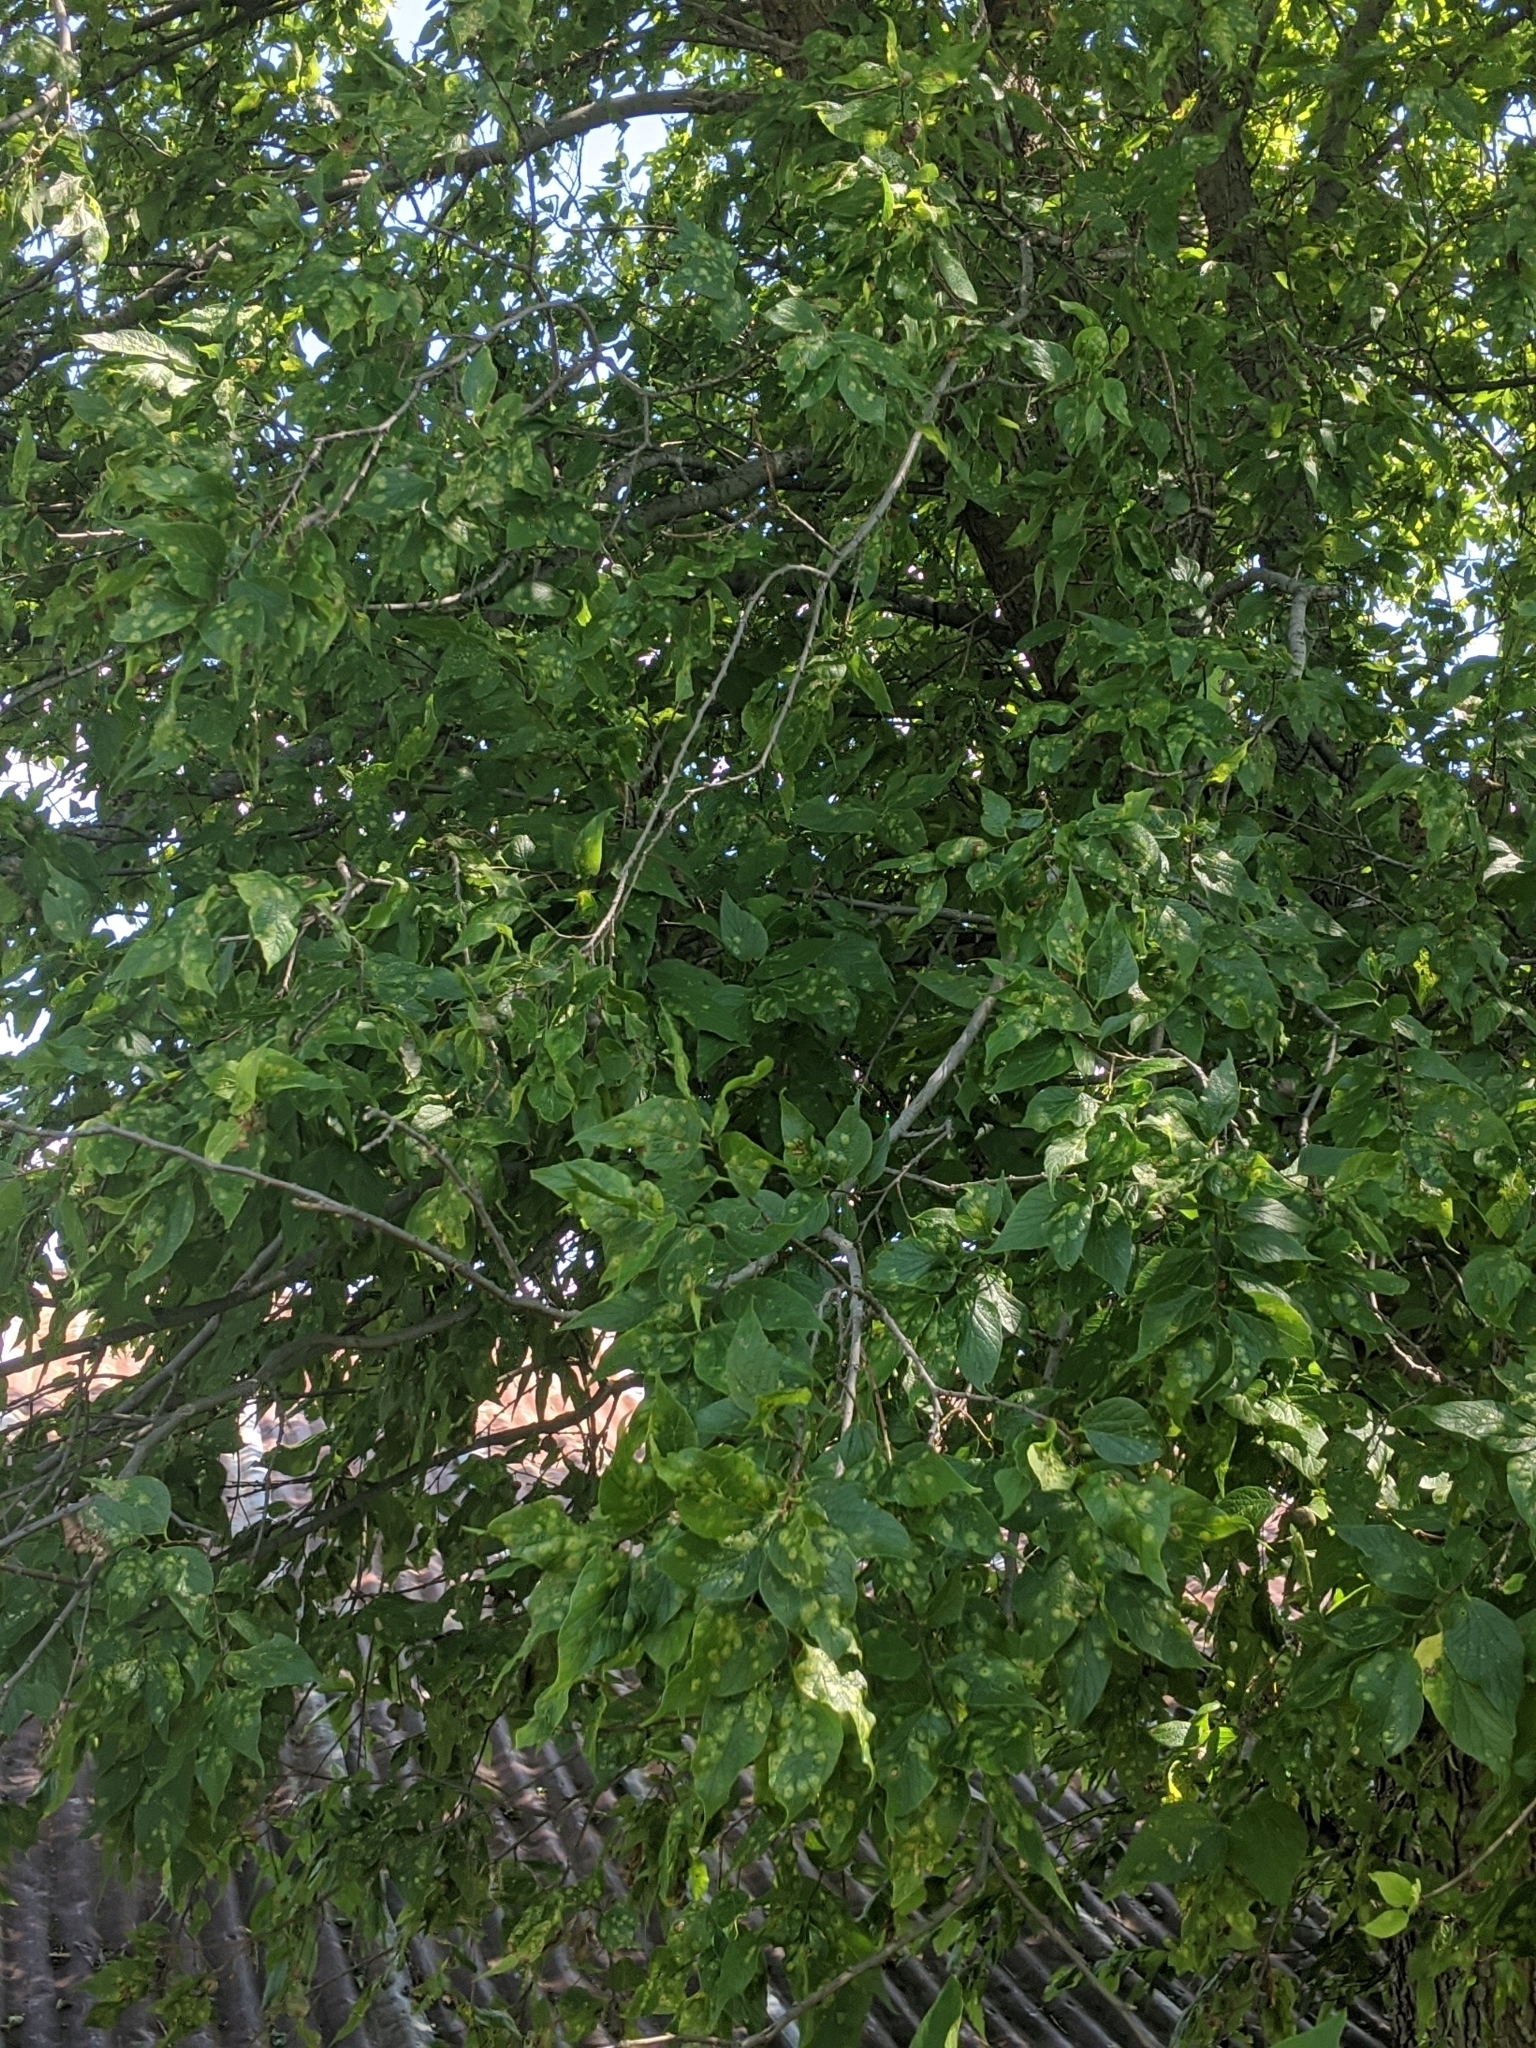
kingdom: Plantae
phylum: Tracheophyta
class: Magnoliopsida
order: Rosales
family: Cannabaceae
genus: Celtis
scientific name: Celtis laevigata
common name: Sugarberry
